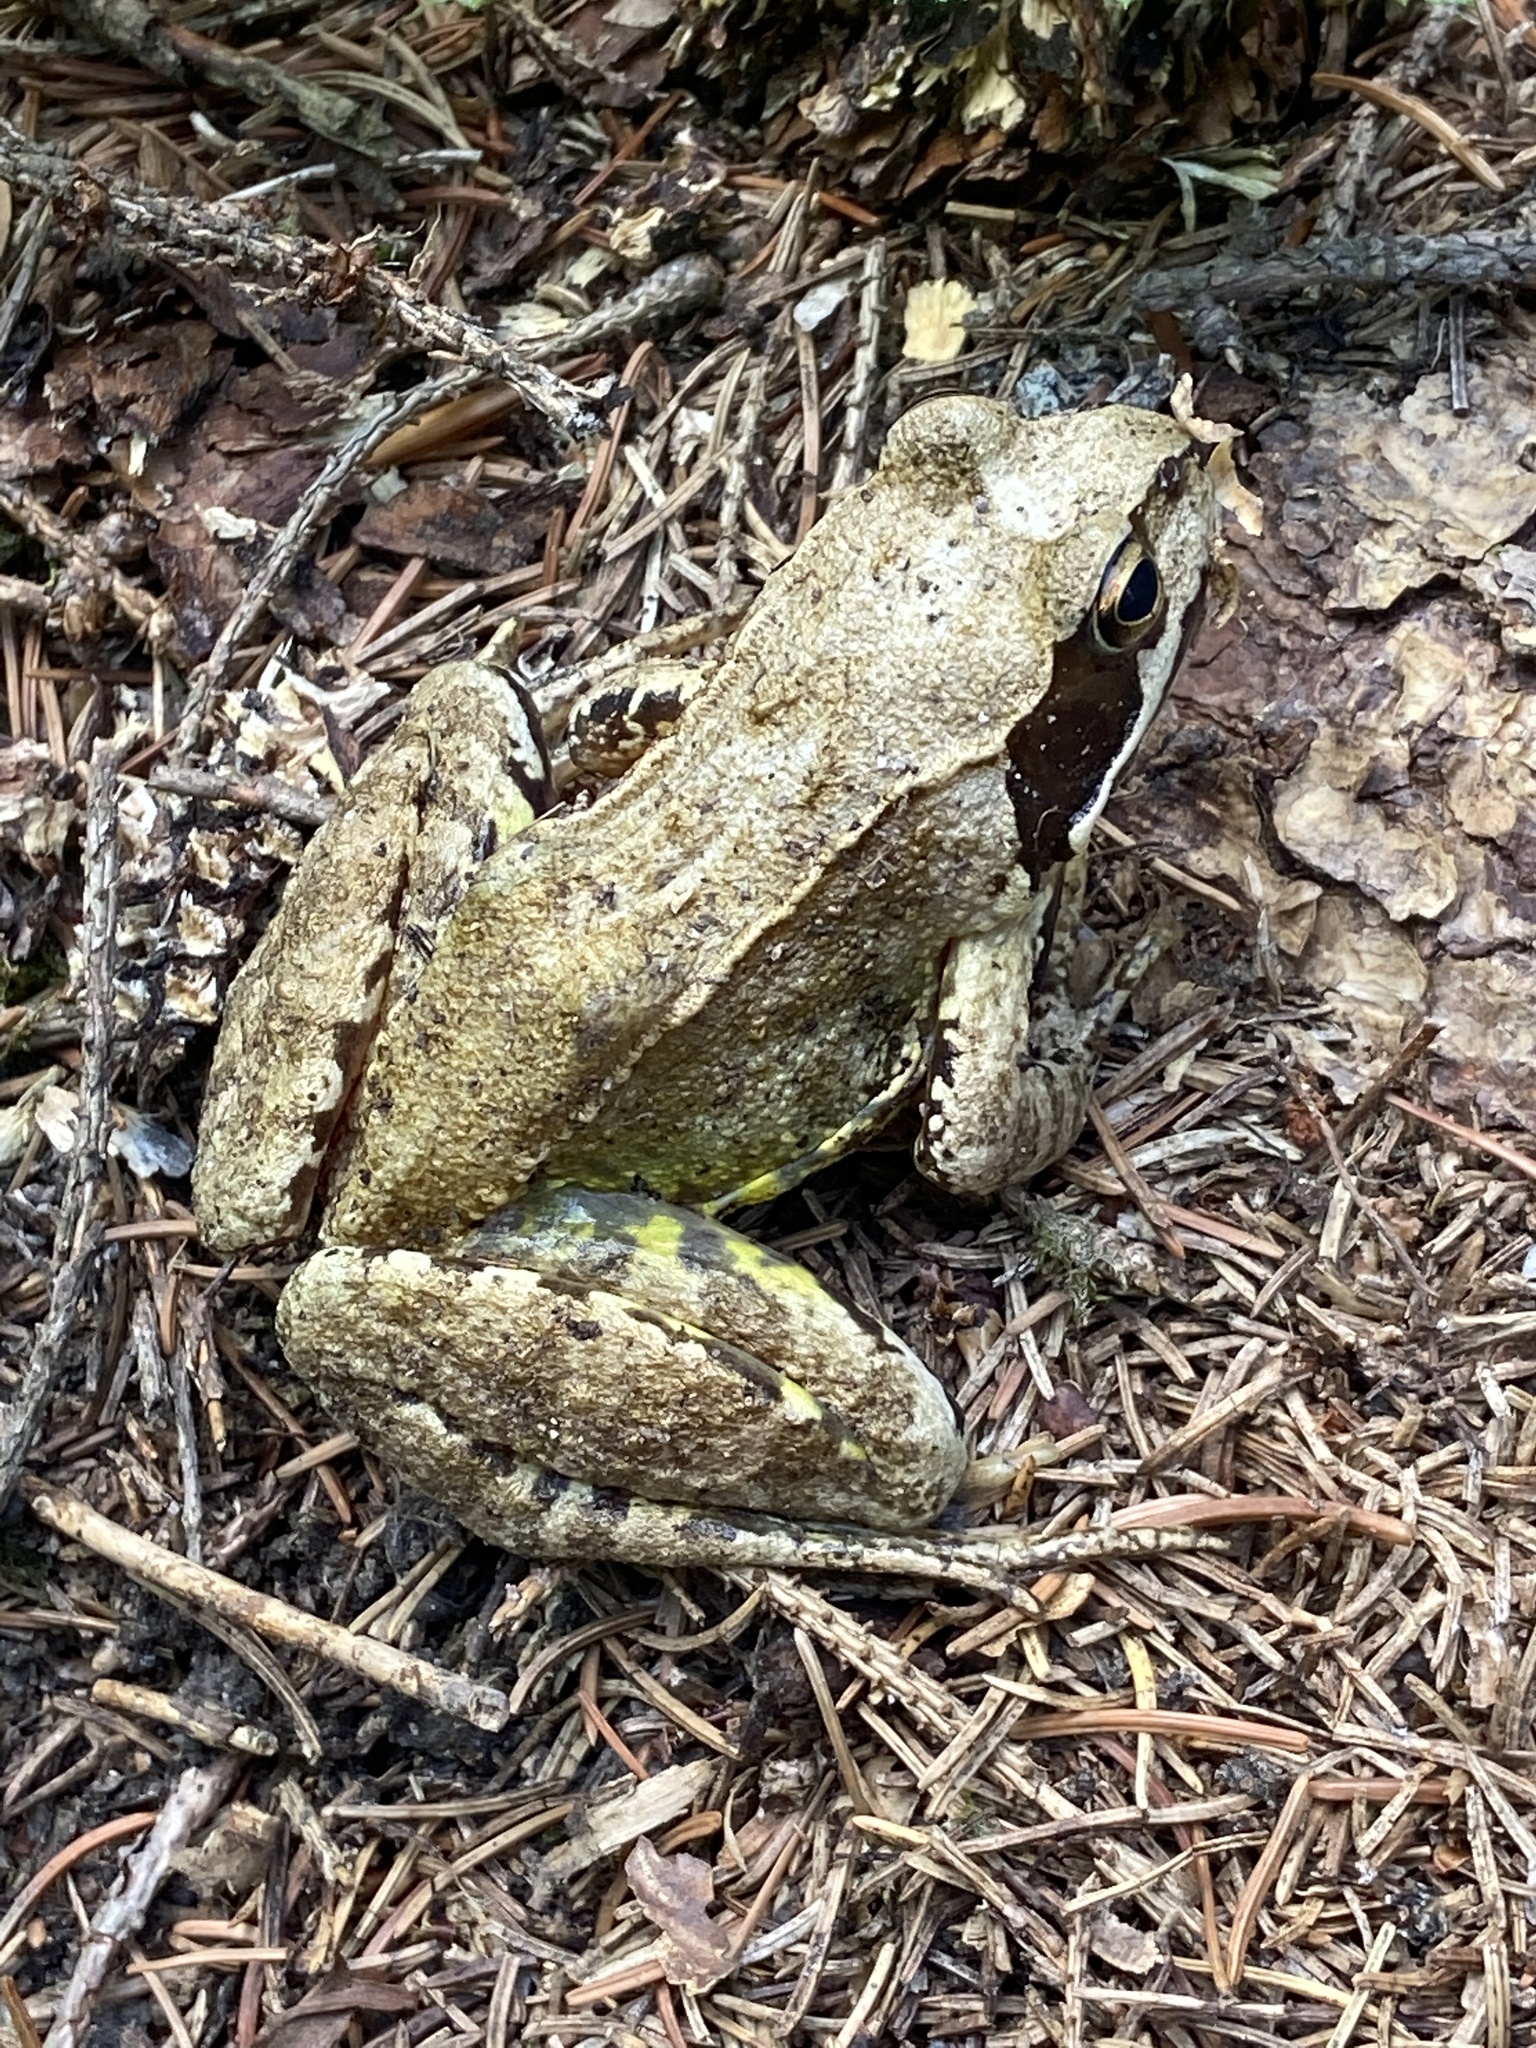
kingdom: Animalia
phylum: Chordata
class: Amphibia
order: Anura
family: Ranidae
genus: Rana
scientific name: Rana temporaria
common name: Common frog
